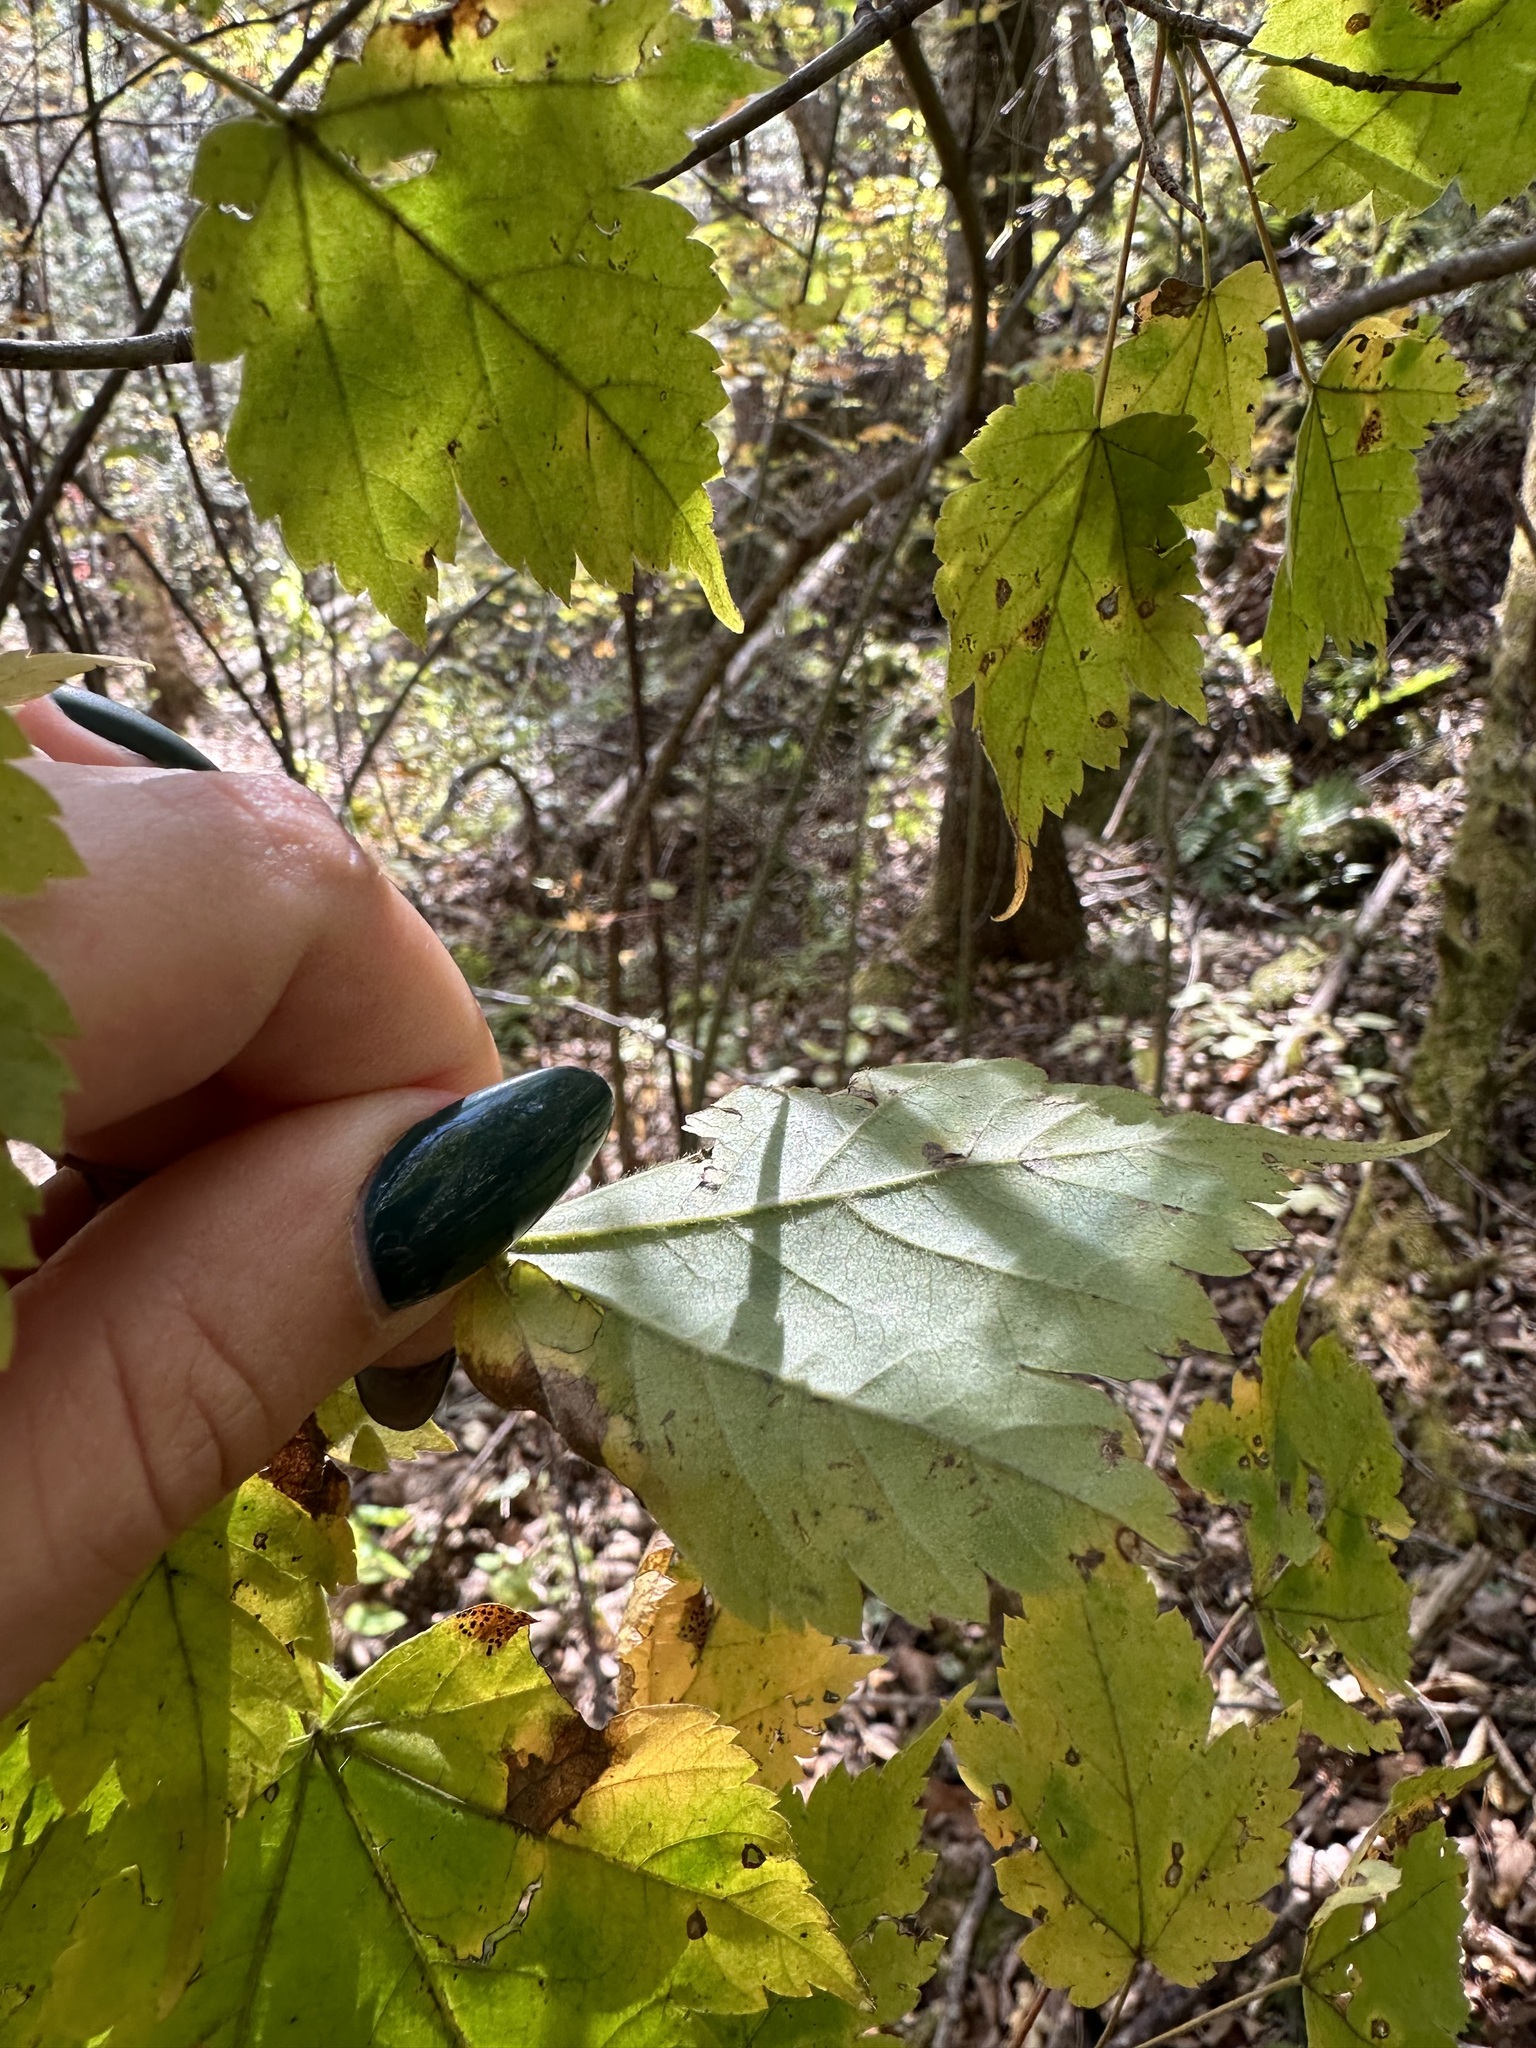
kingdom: Plantae
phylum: Tracheophyta
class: Magnoliopsida
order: Sapindales
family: Sapindaceae
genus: Acer
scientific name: Acer barbinerve
